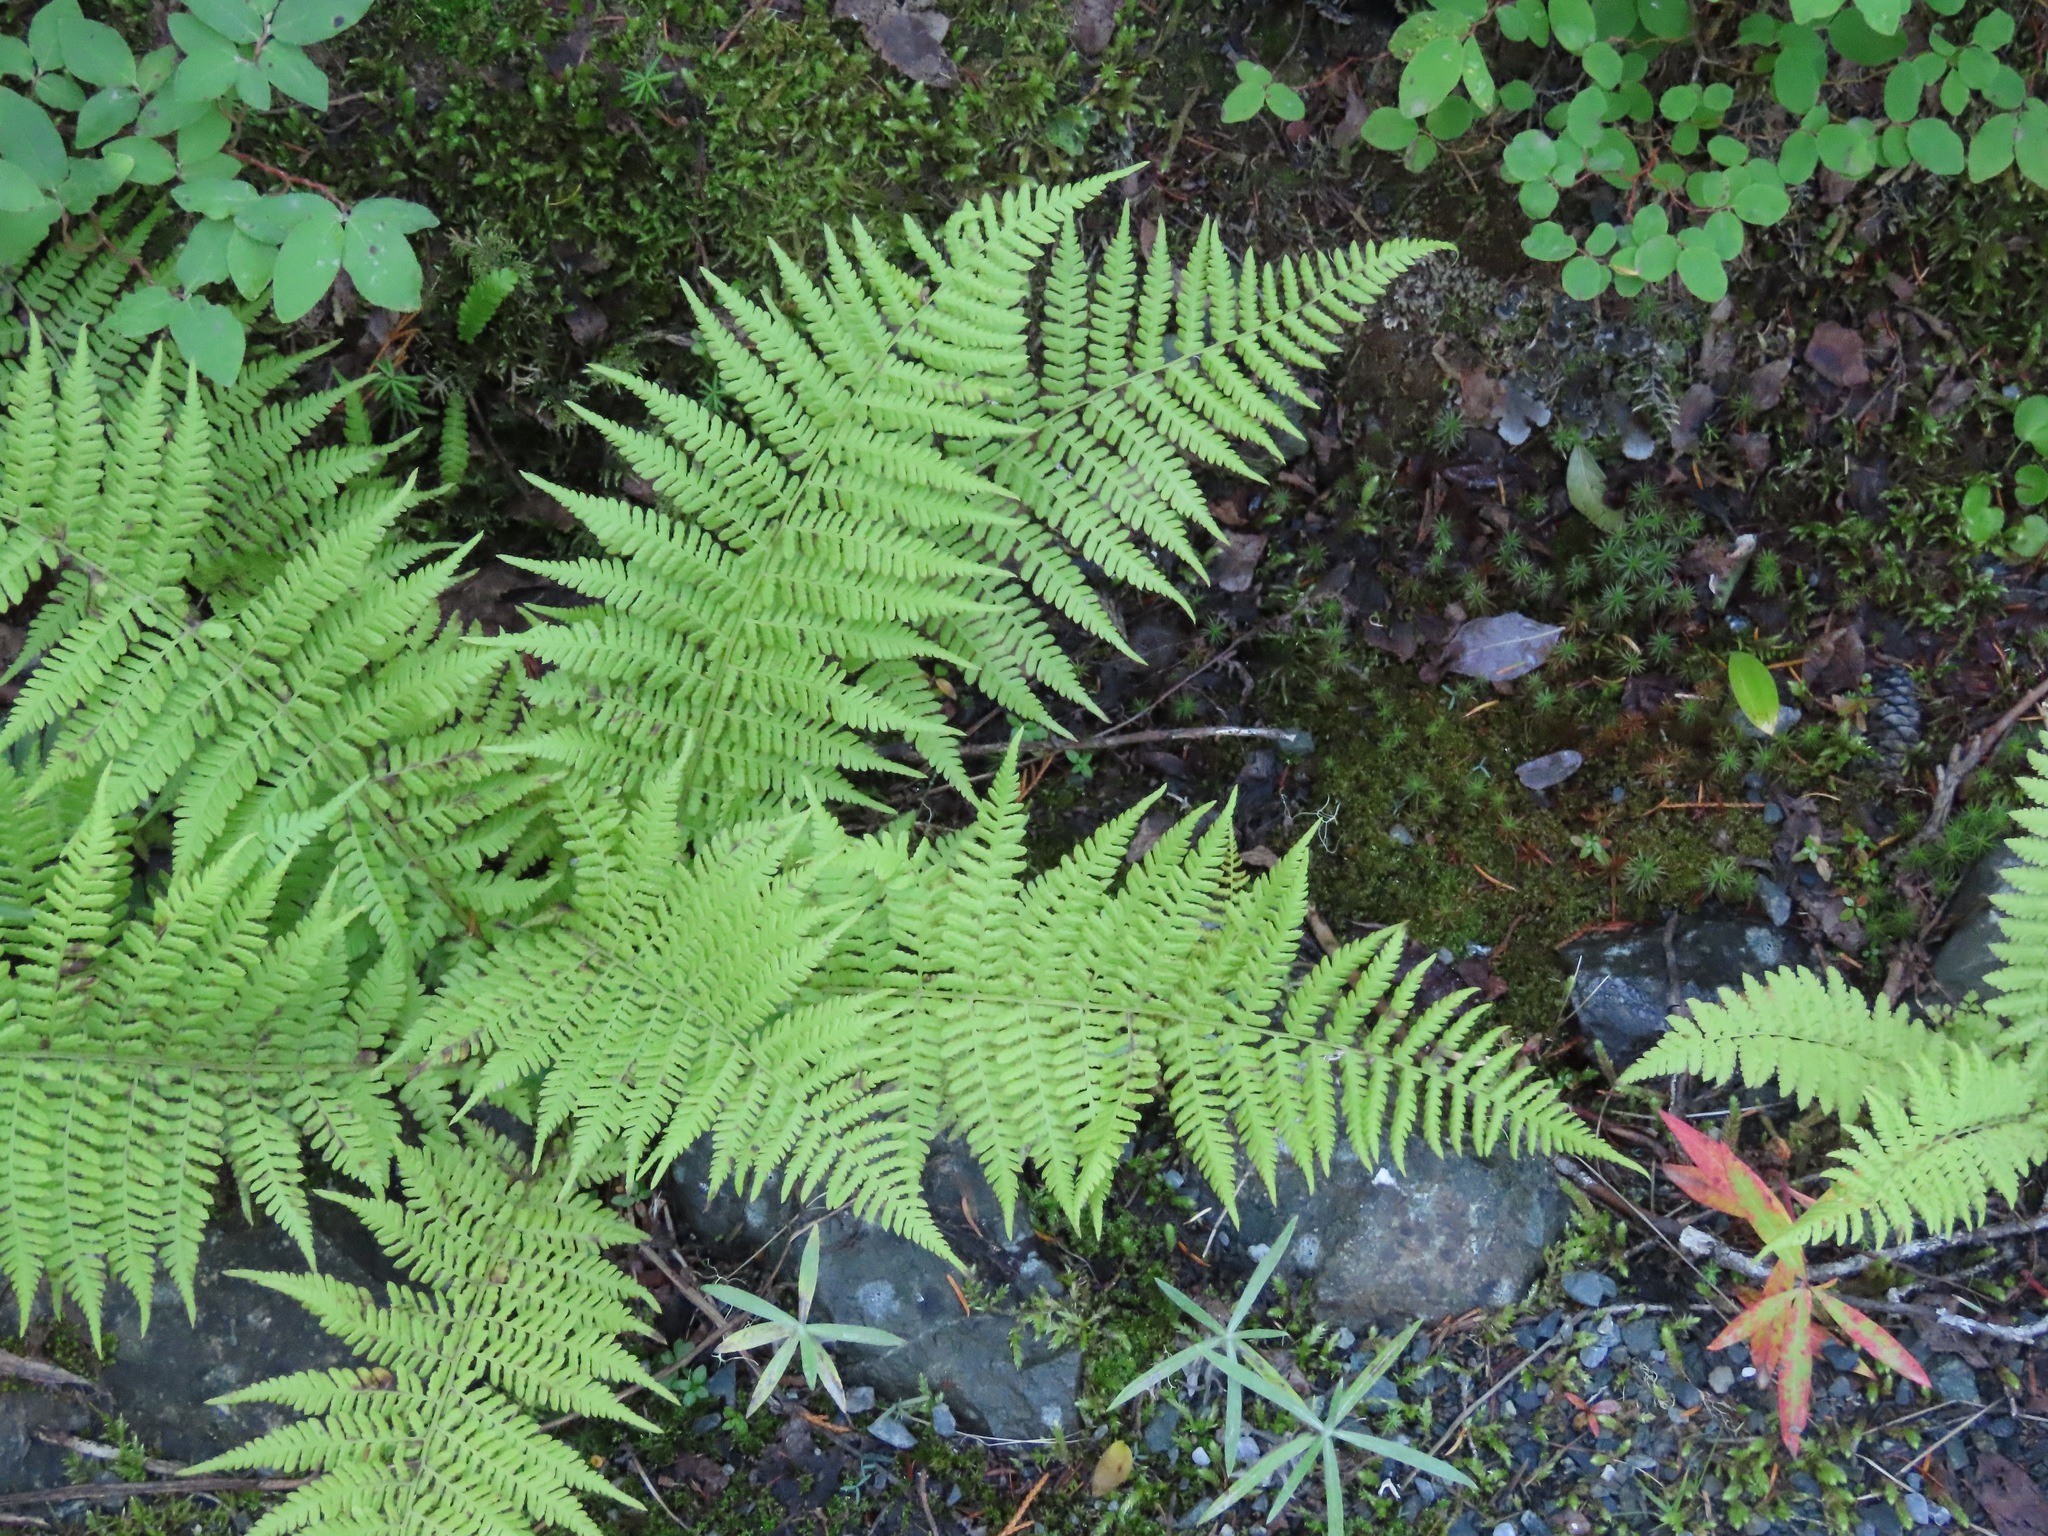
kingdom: Plantae
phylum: Tracheophyta
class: Polypodiopsida
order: Polypodiales
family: Athyriaceae
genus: Athyrium
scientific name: Athyrium filix-femina
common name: Lady fern
